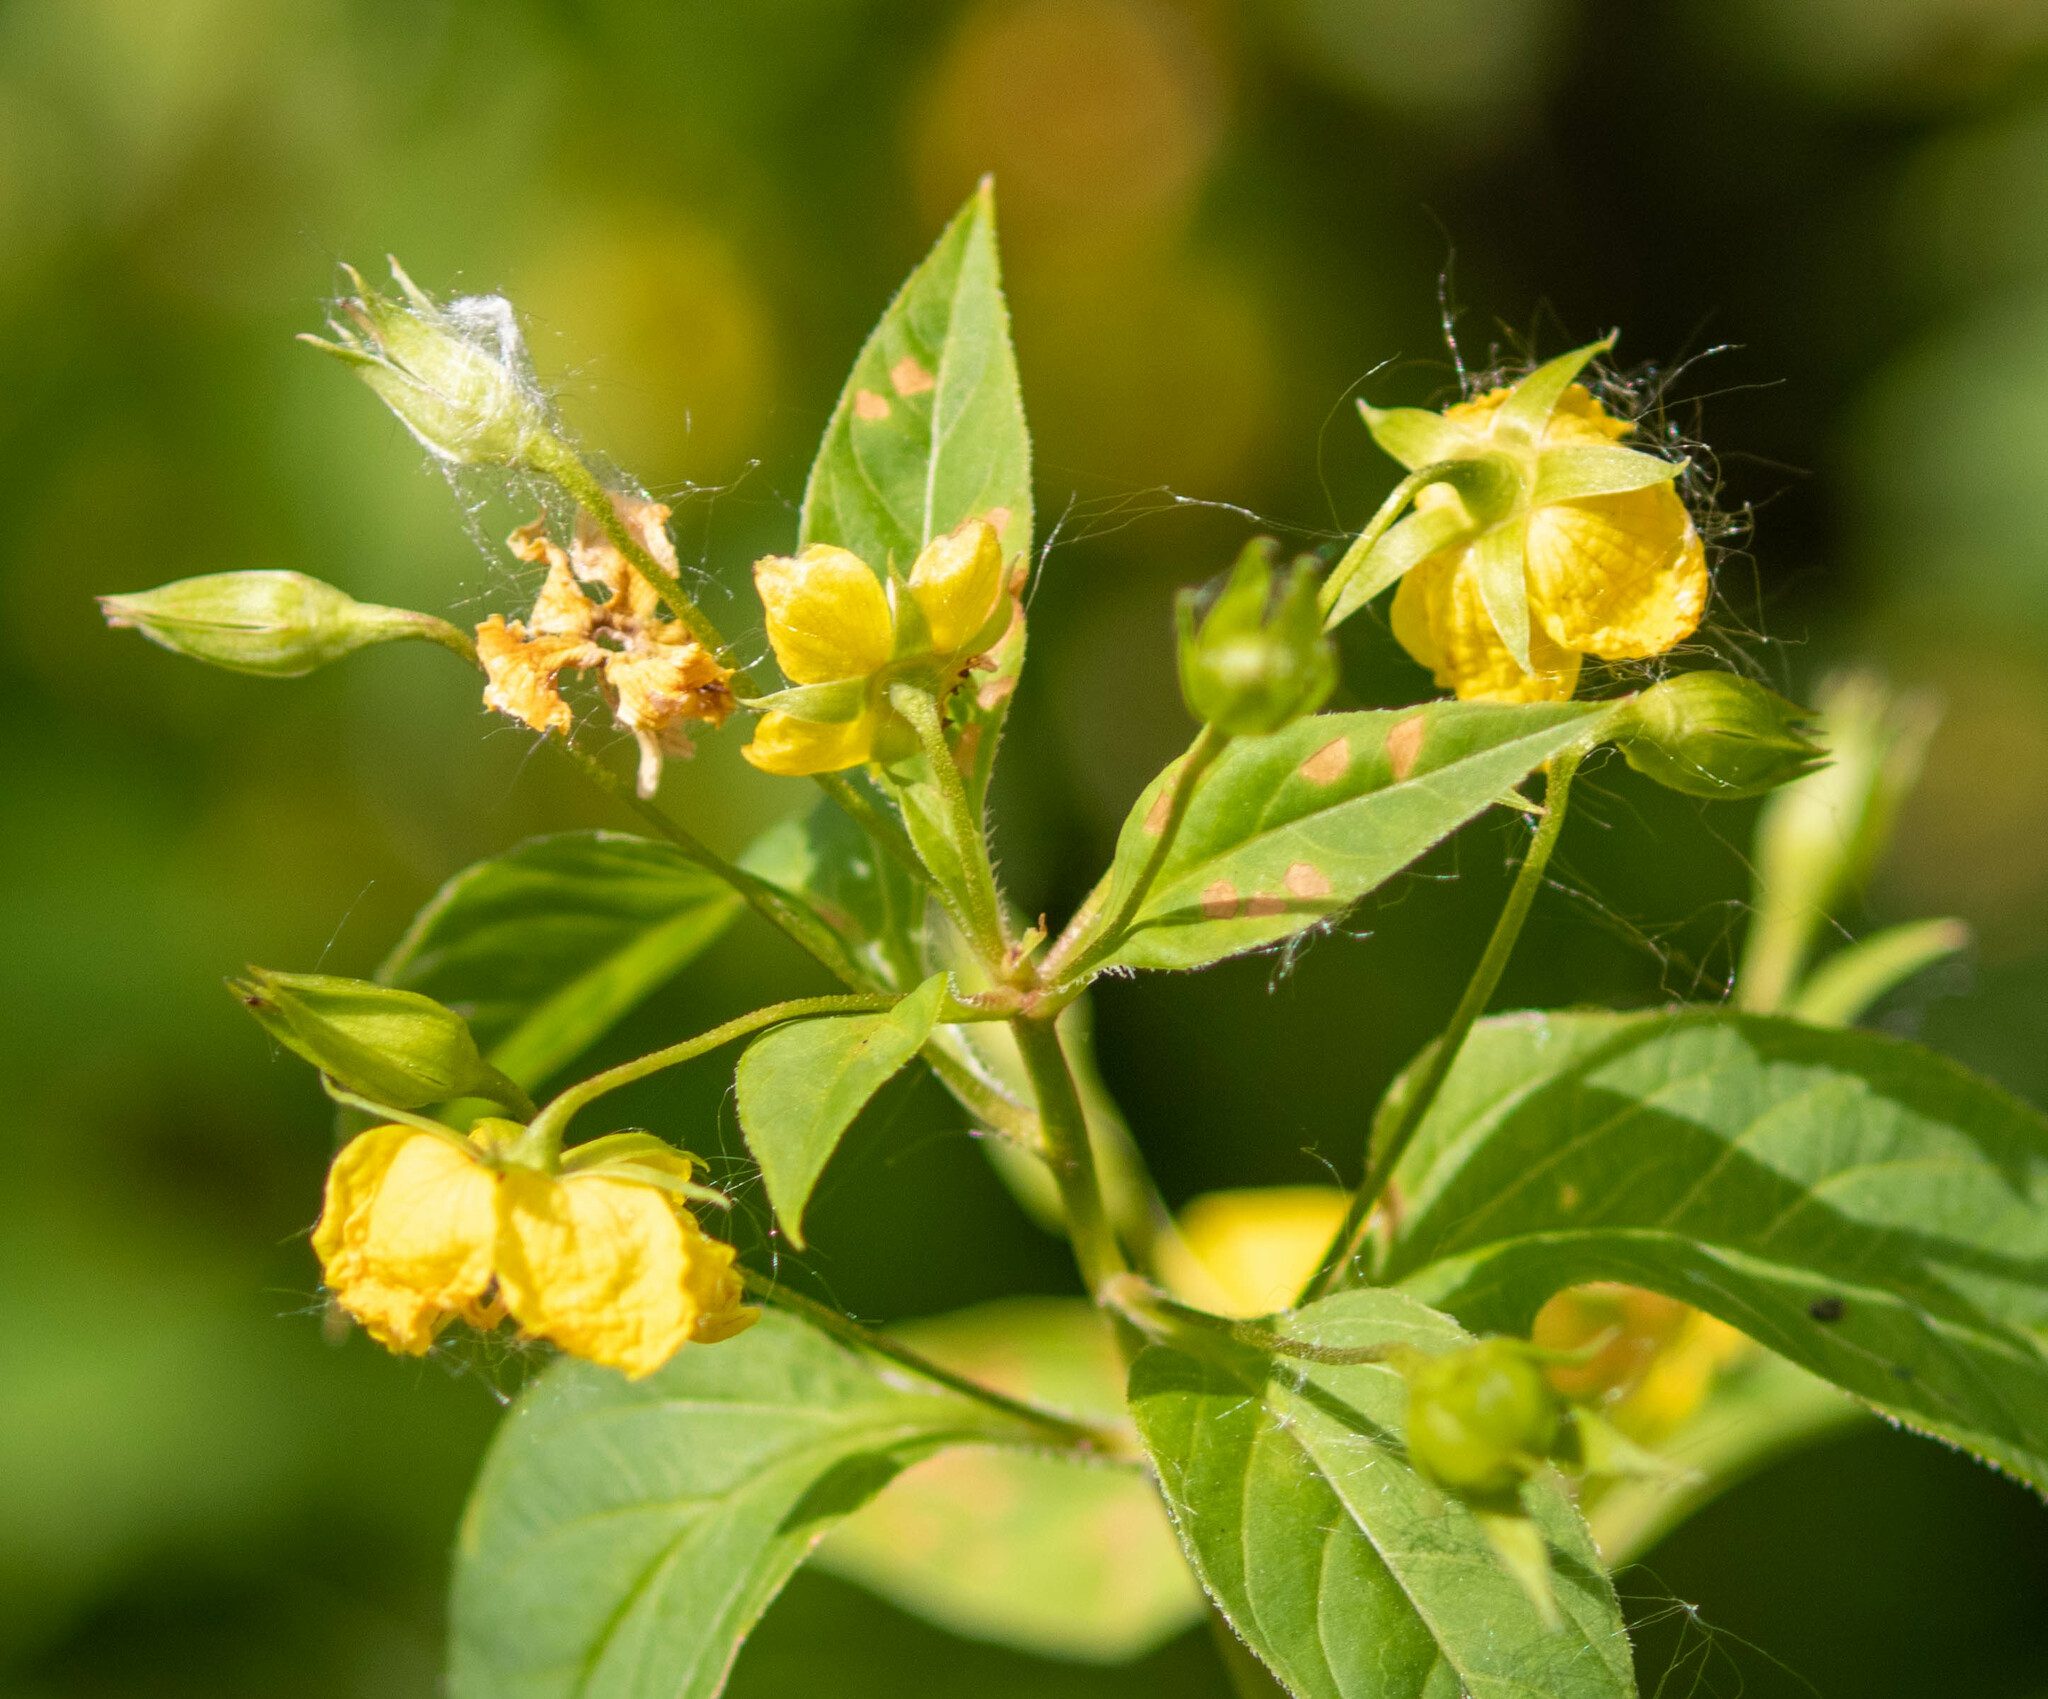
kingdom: Plantae
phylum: Tracheophyta
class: Magnoliopsida
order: Ericales
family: Primulaceae
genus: Lysimachia
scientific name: Lysimachia ciliata
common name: Fringed loosestrife
